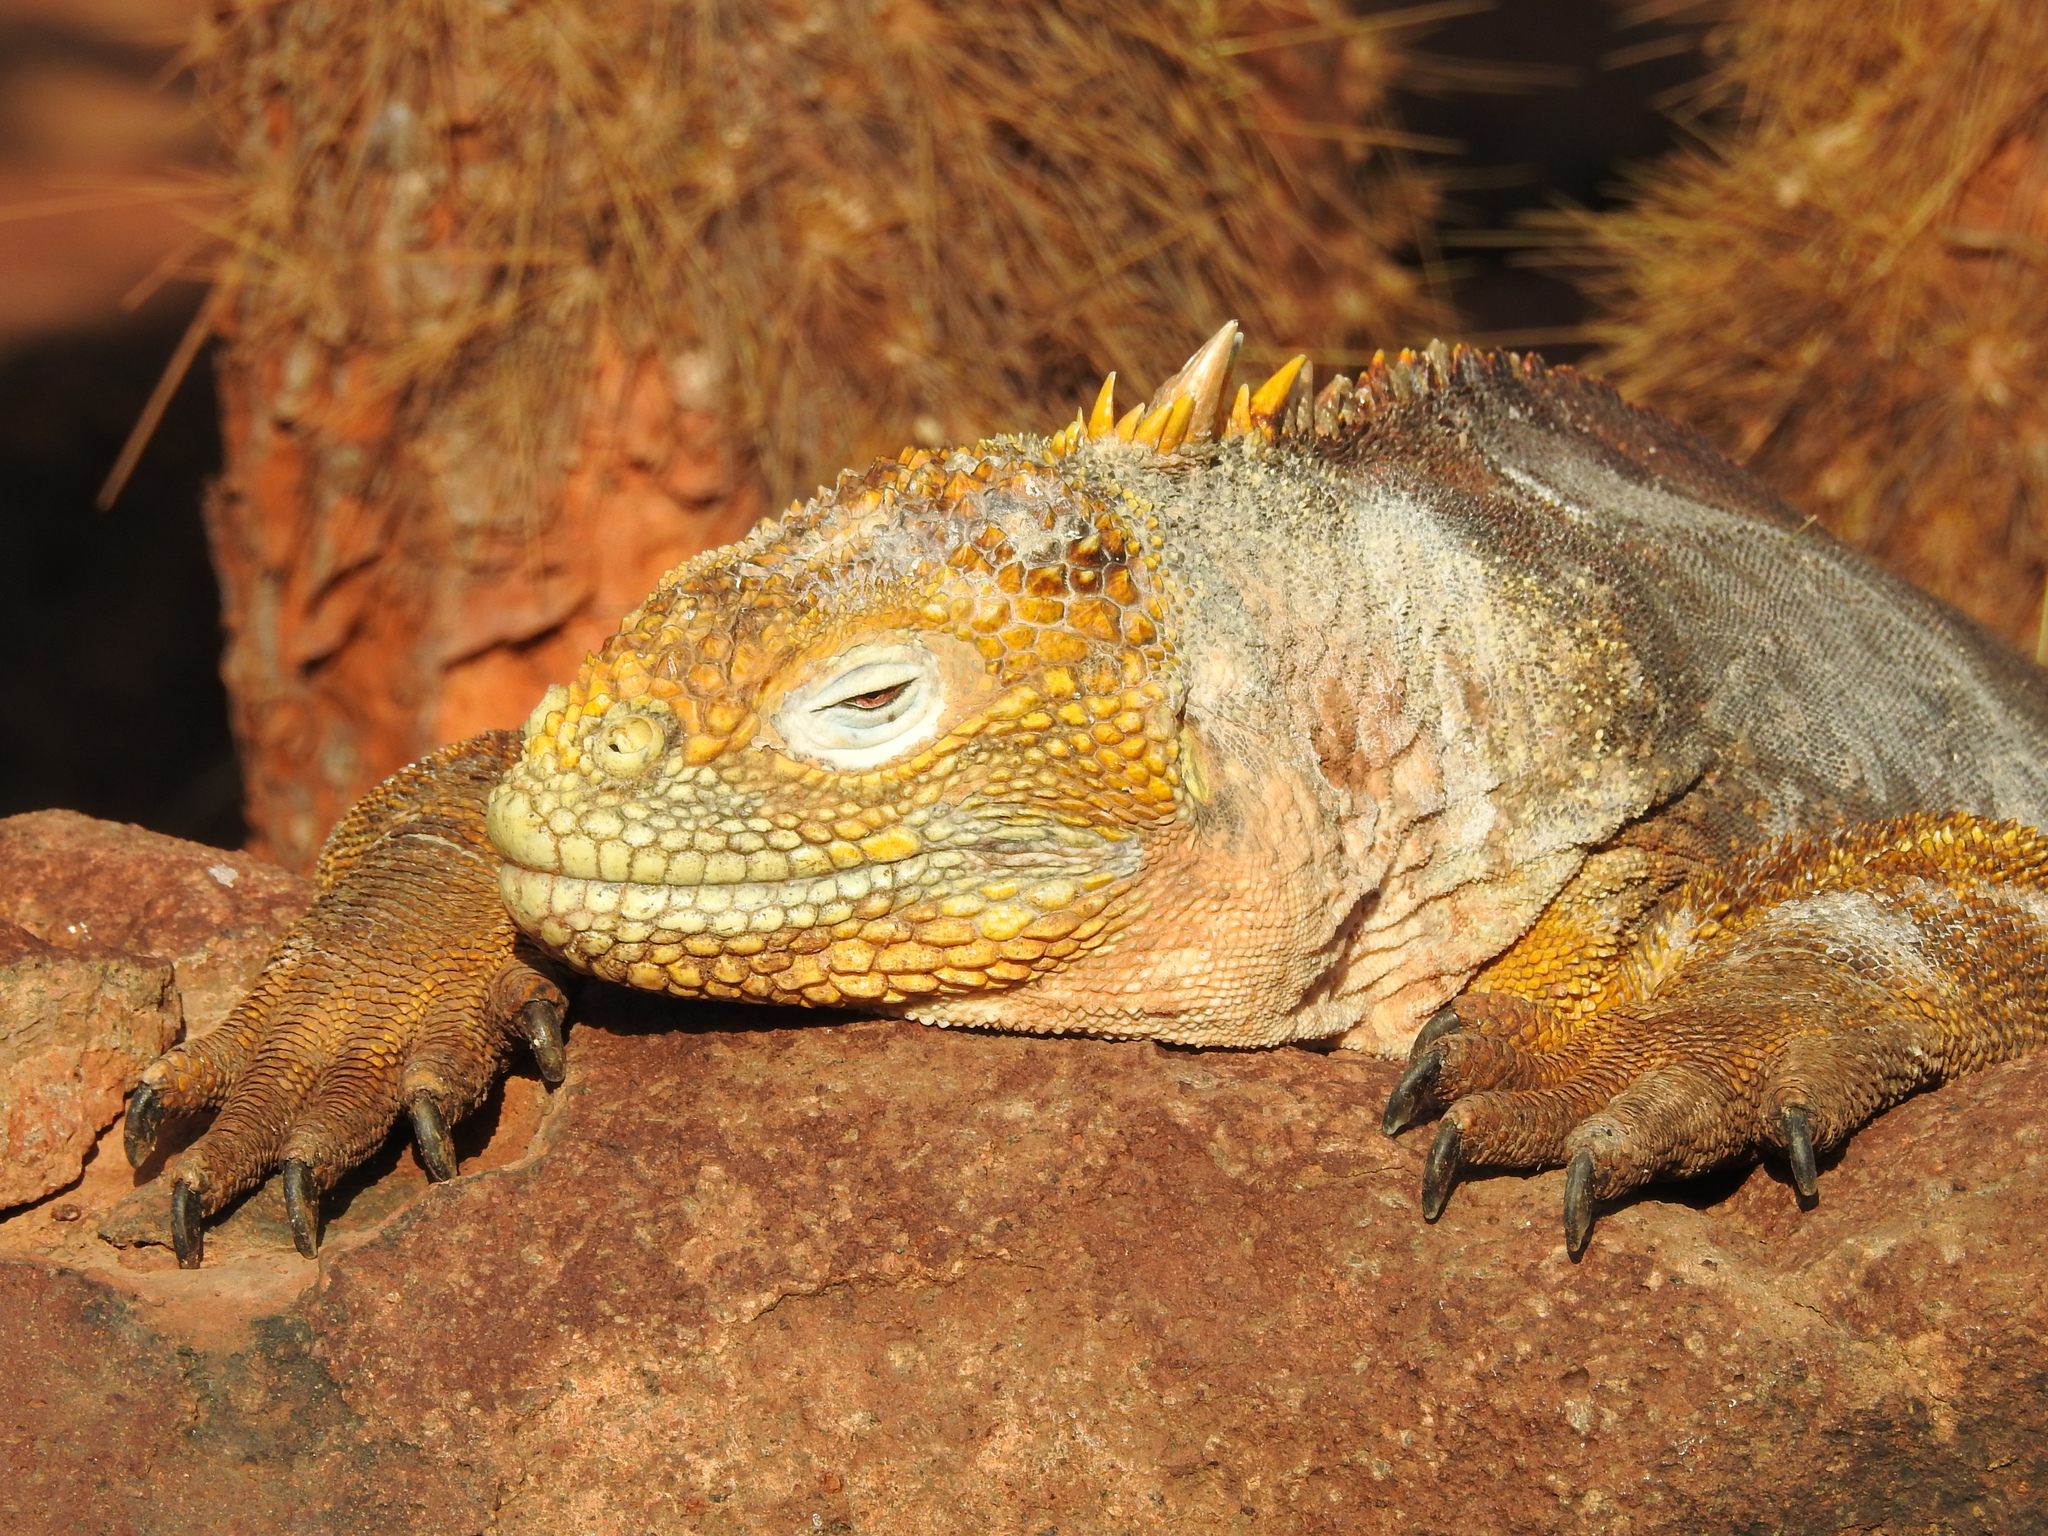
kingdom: Animalia
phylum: Chordata
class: Squamata
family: Iguanidae
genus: Conolophus
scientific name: Conolophus subcristatus
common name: Galapagos land iguana
